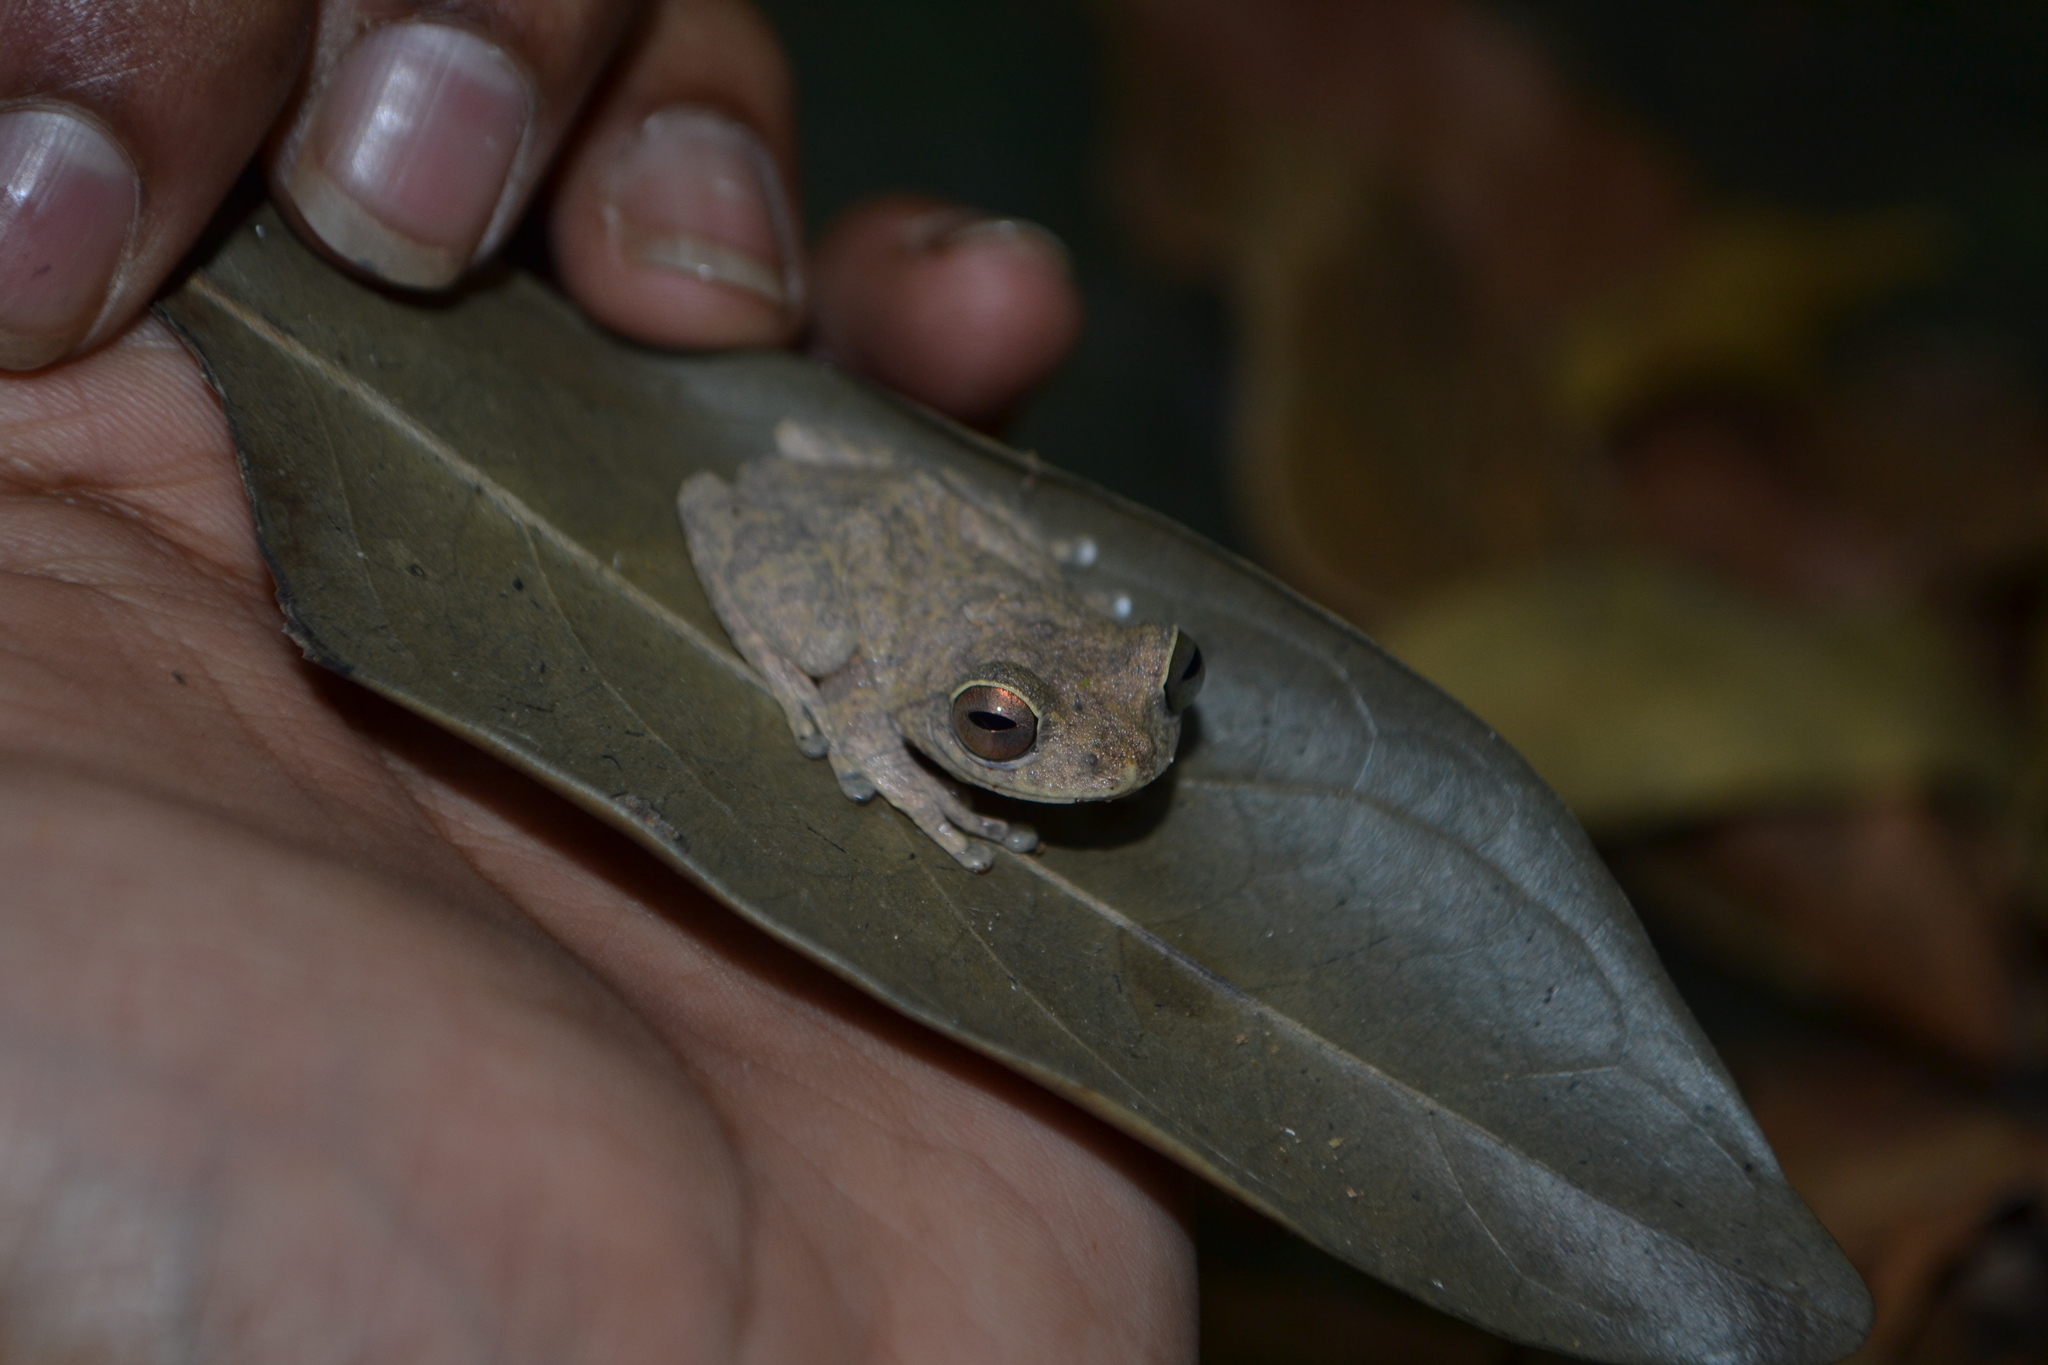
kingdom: Animalia
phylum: Chordata
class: Amphibia
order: Anura
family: Rhacophoridae
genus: Raorchestes
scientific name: Raorchestes ponmudi
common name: Large ponmudi bush frog
